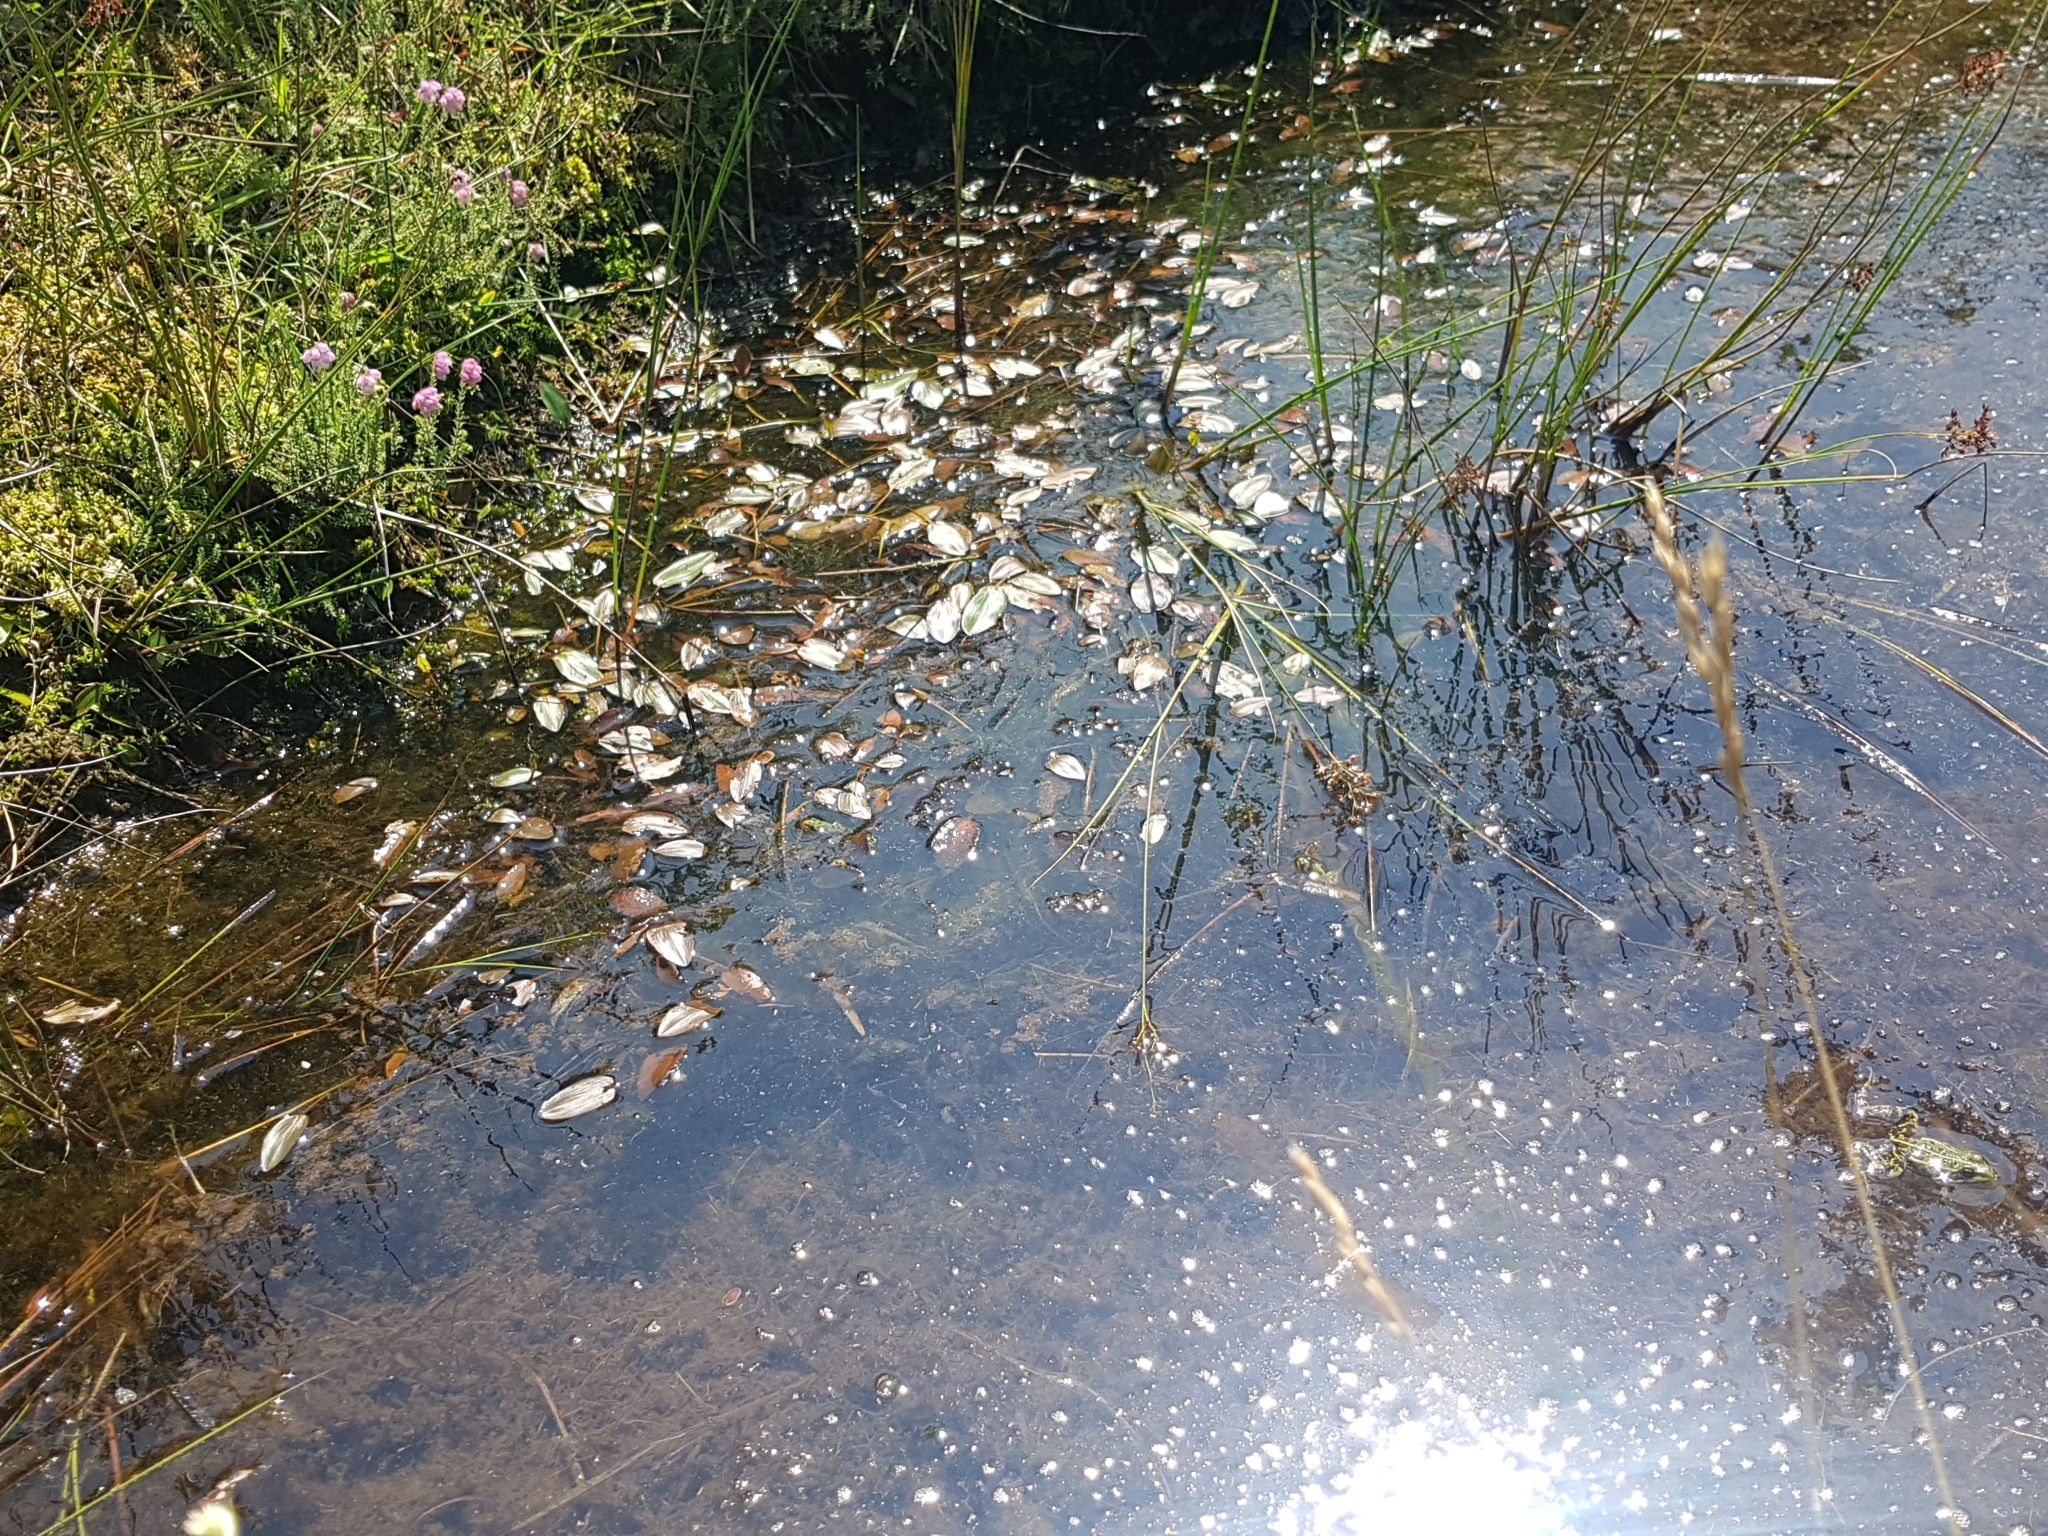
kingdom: Plantae
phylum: Tracheophyta
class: Liliopsida
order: Alismatales
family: Potamogetonaceae
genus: Potamogeton
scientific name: Potamogeton natans
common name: Broad-leaved pondweed
